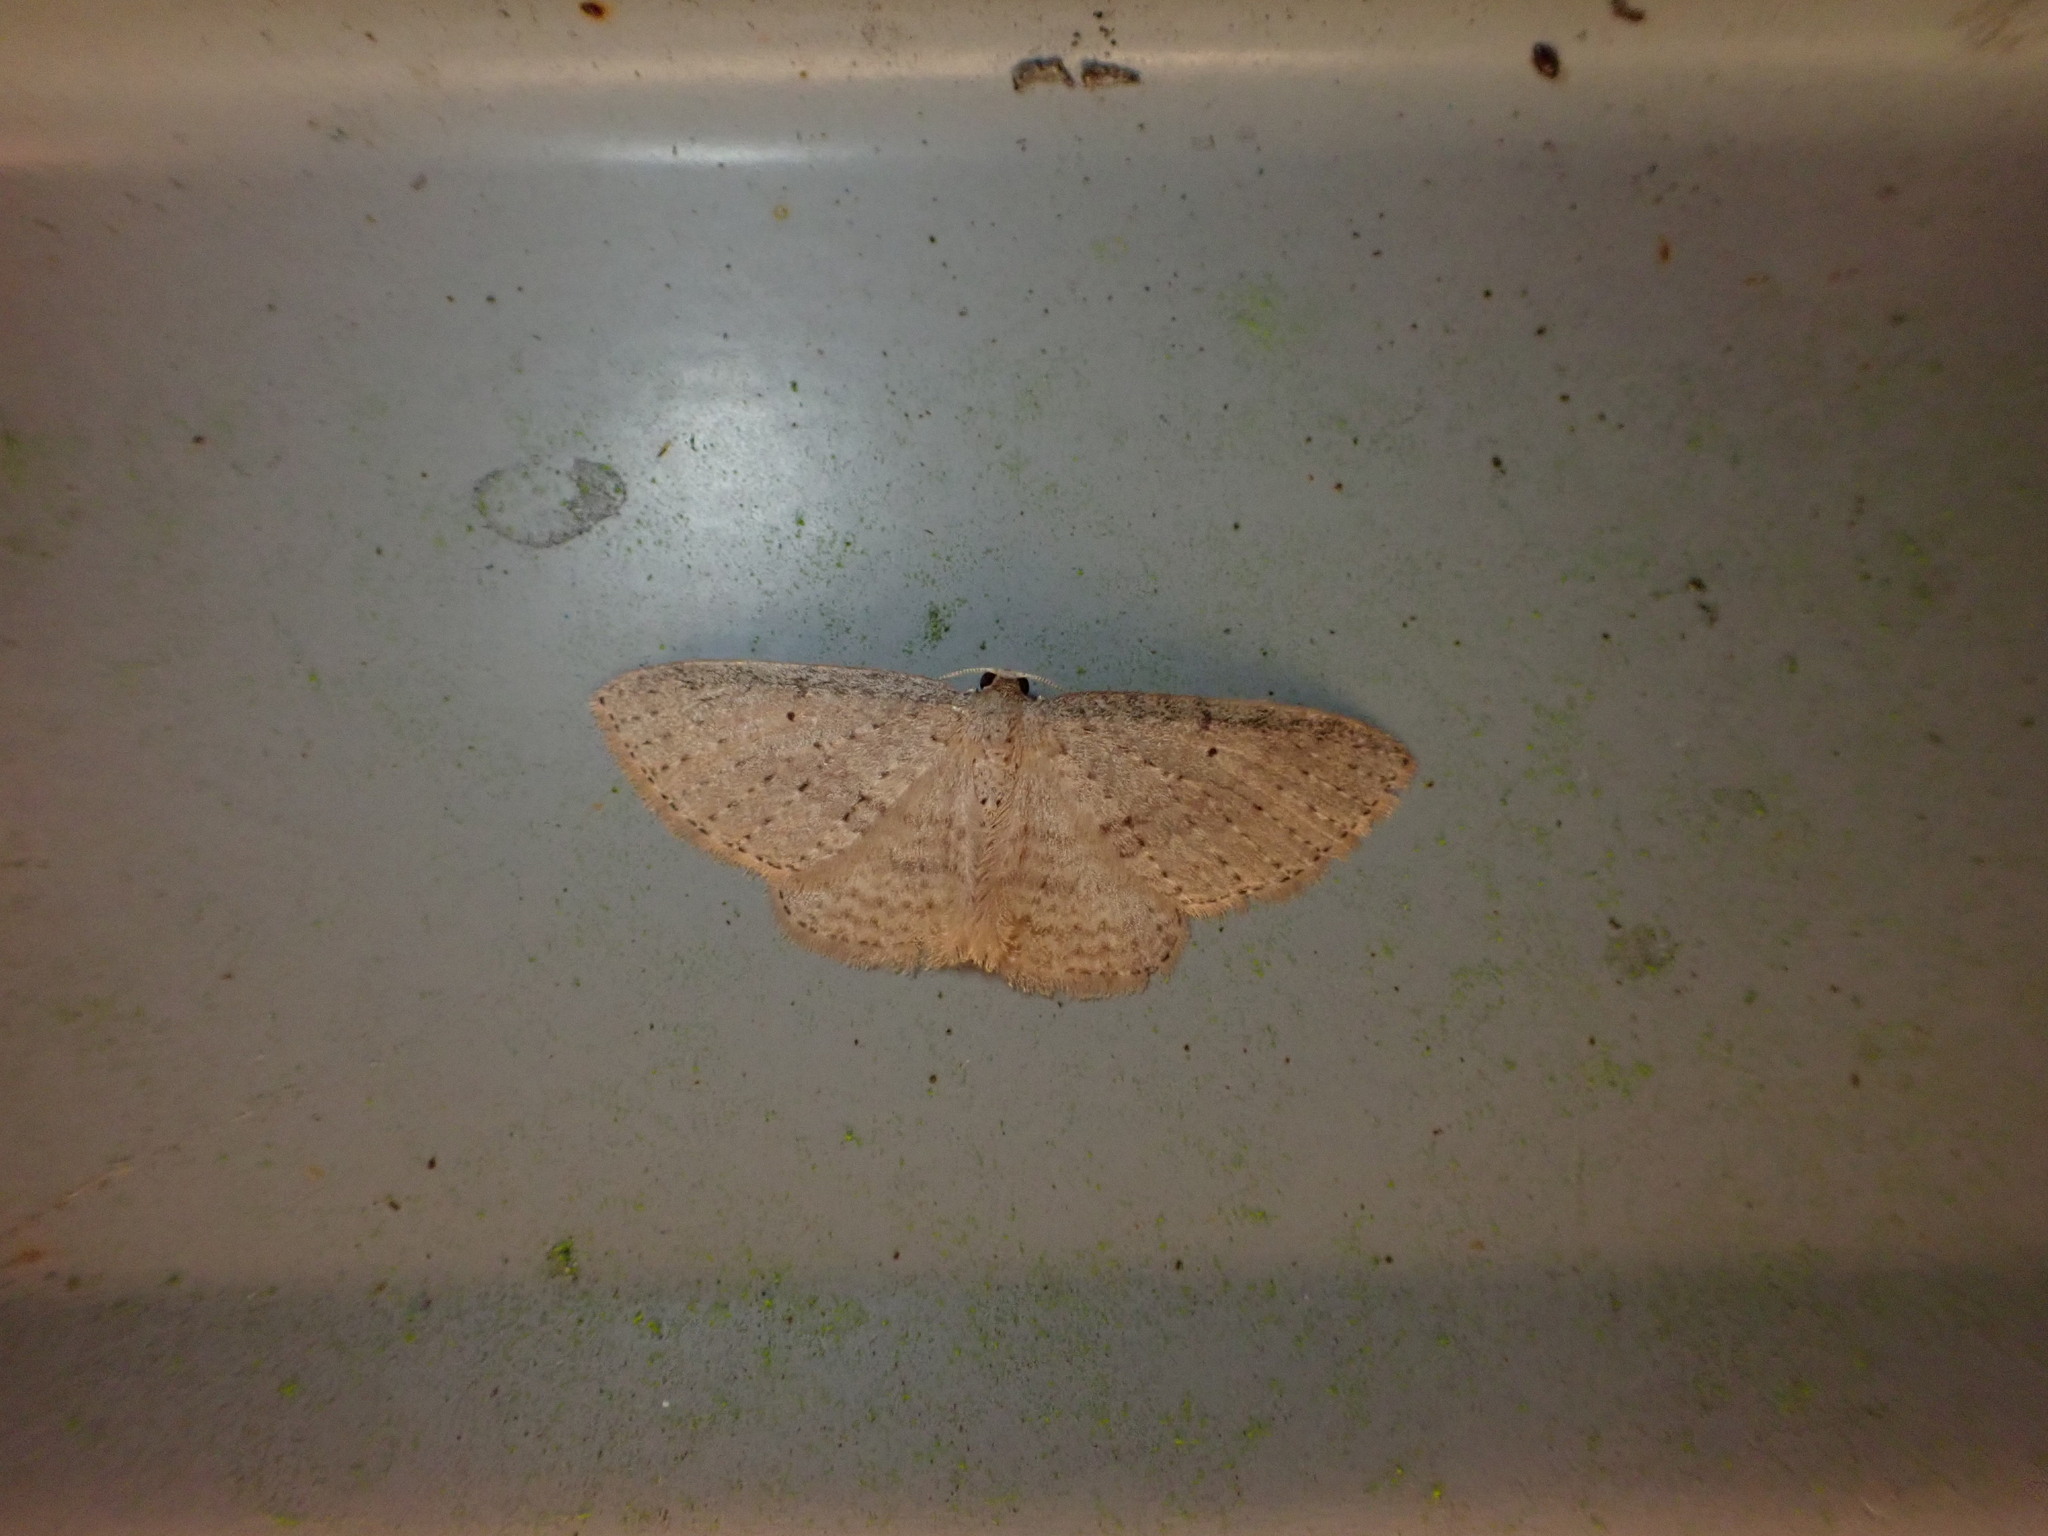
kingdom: Animalia
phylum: Arthropoda
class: Insecta
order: Lepidoptera
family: Geometridae
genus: Poecilasthena
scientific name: Poecilasthena schistaria
